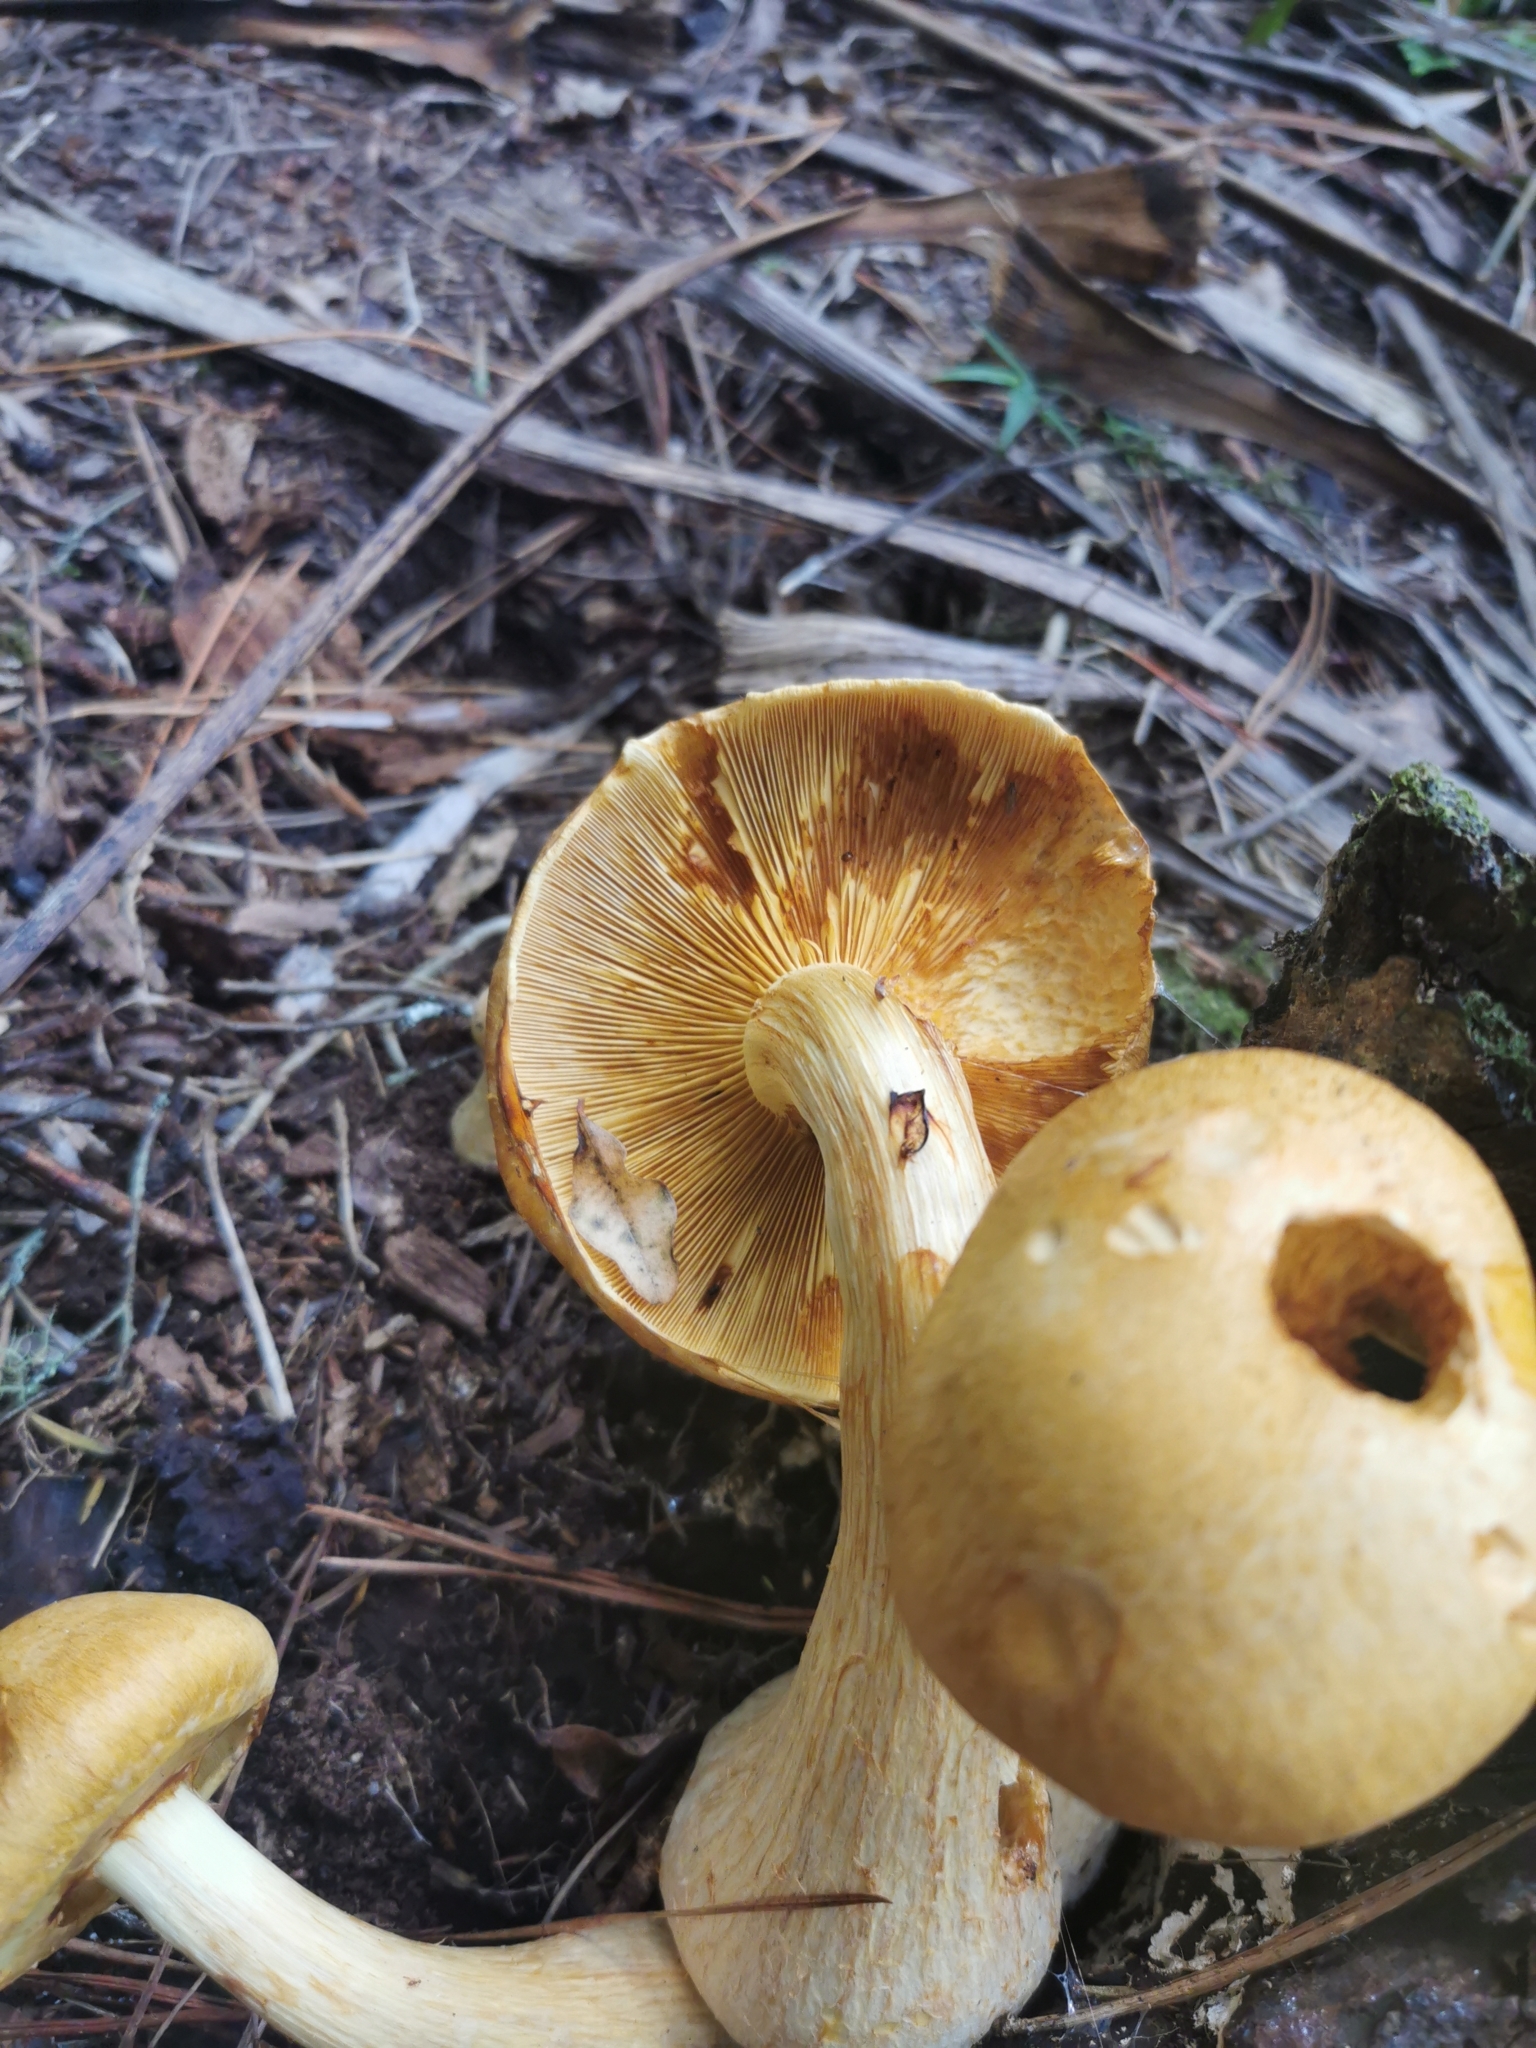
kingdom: Fungi
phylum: Basidiomycota
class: Agaricomycetes
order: Agaricales
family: Hymenogastraceae
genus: Gymnopilus
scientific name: Gymnopilus junonius
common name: Spectacular rustgill
